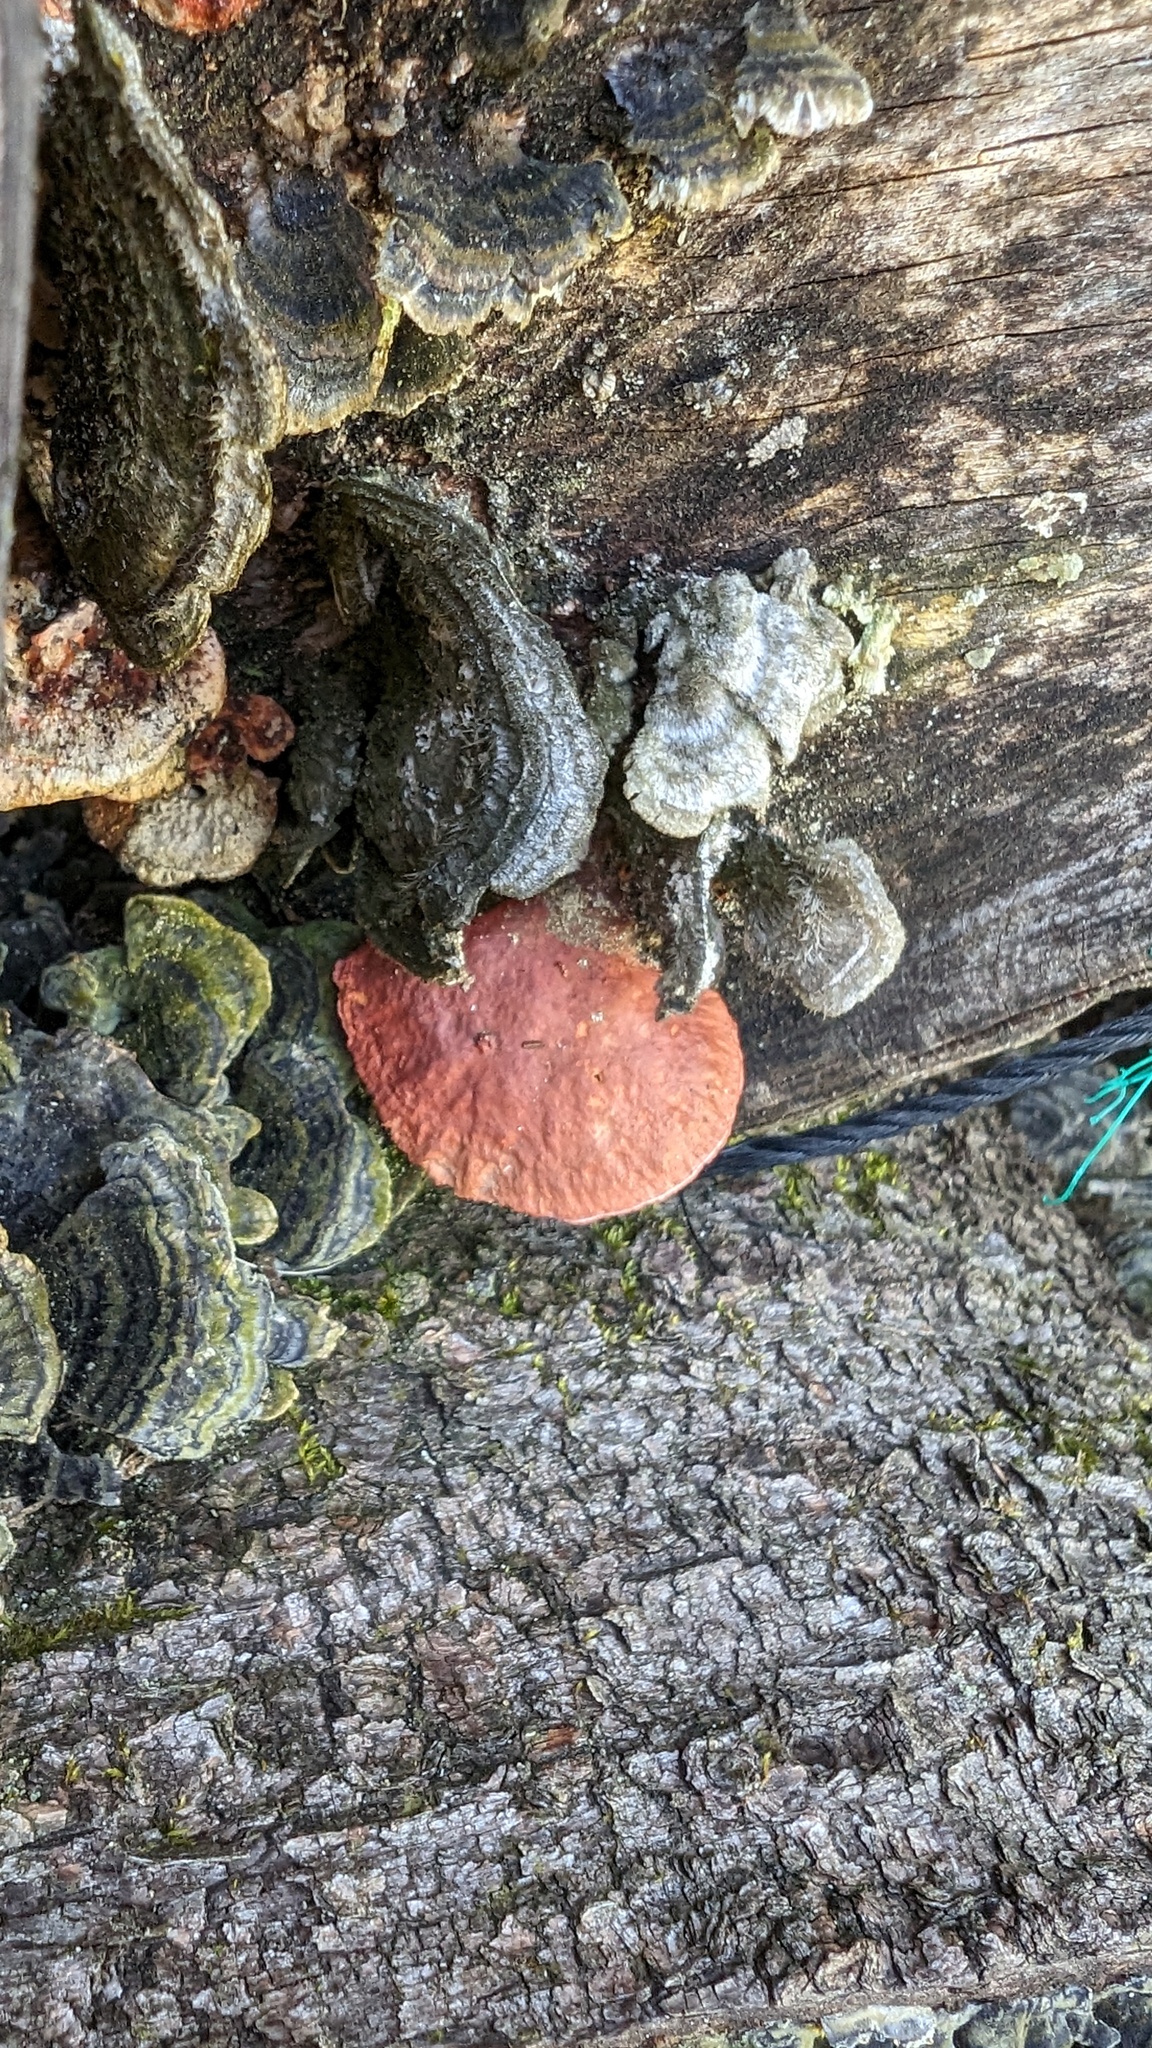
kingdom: Fungi
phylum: Basidiomycota
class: Agaricomycetes
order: Polyporales
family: Polyporaceae
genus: Trametes
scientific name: Trametes coccinea
